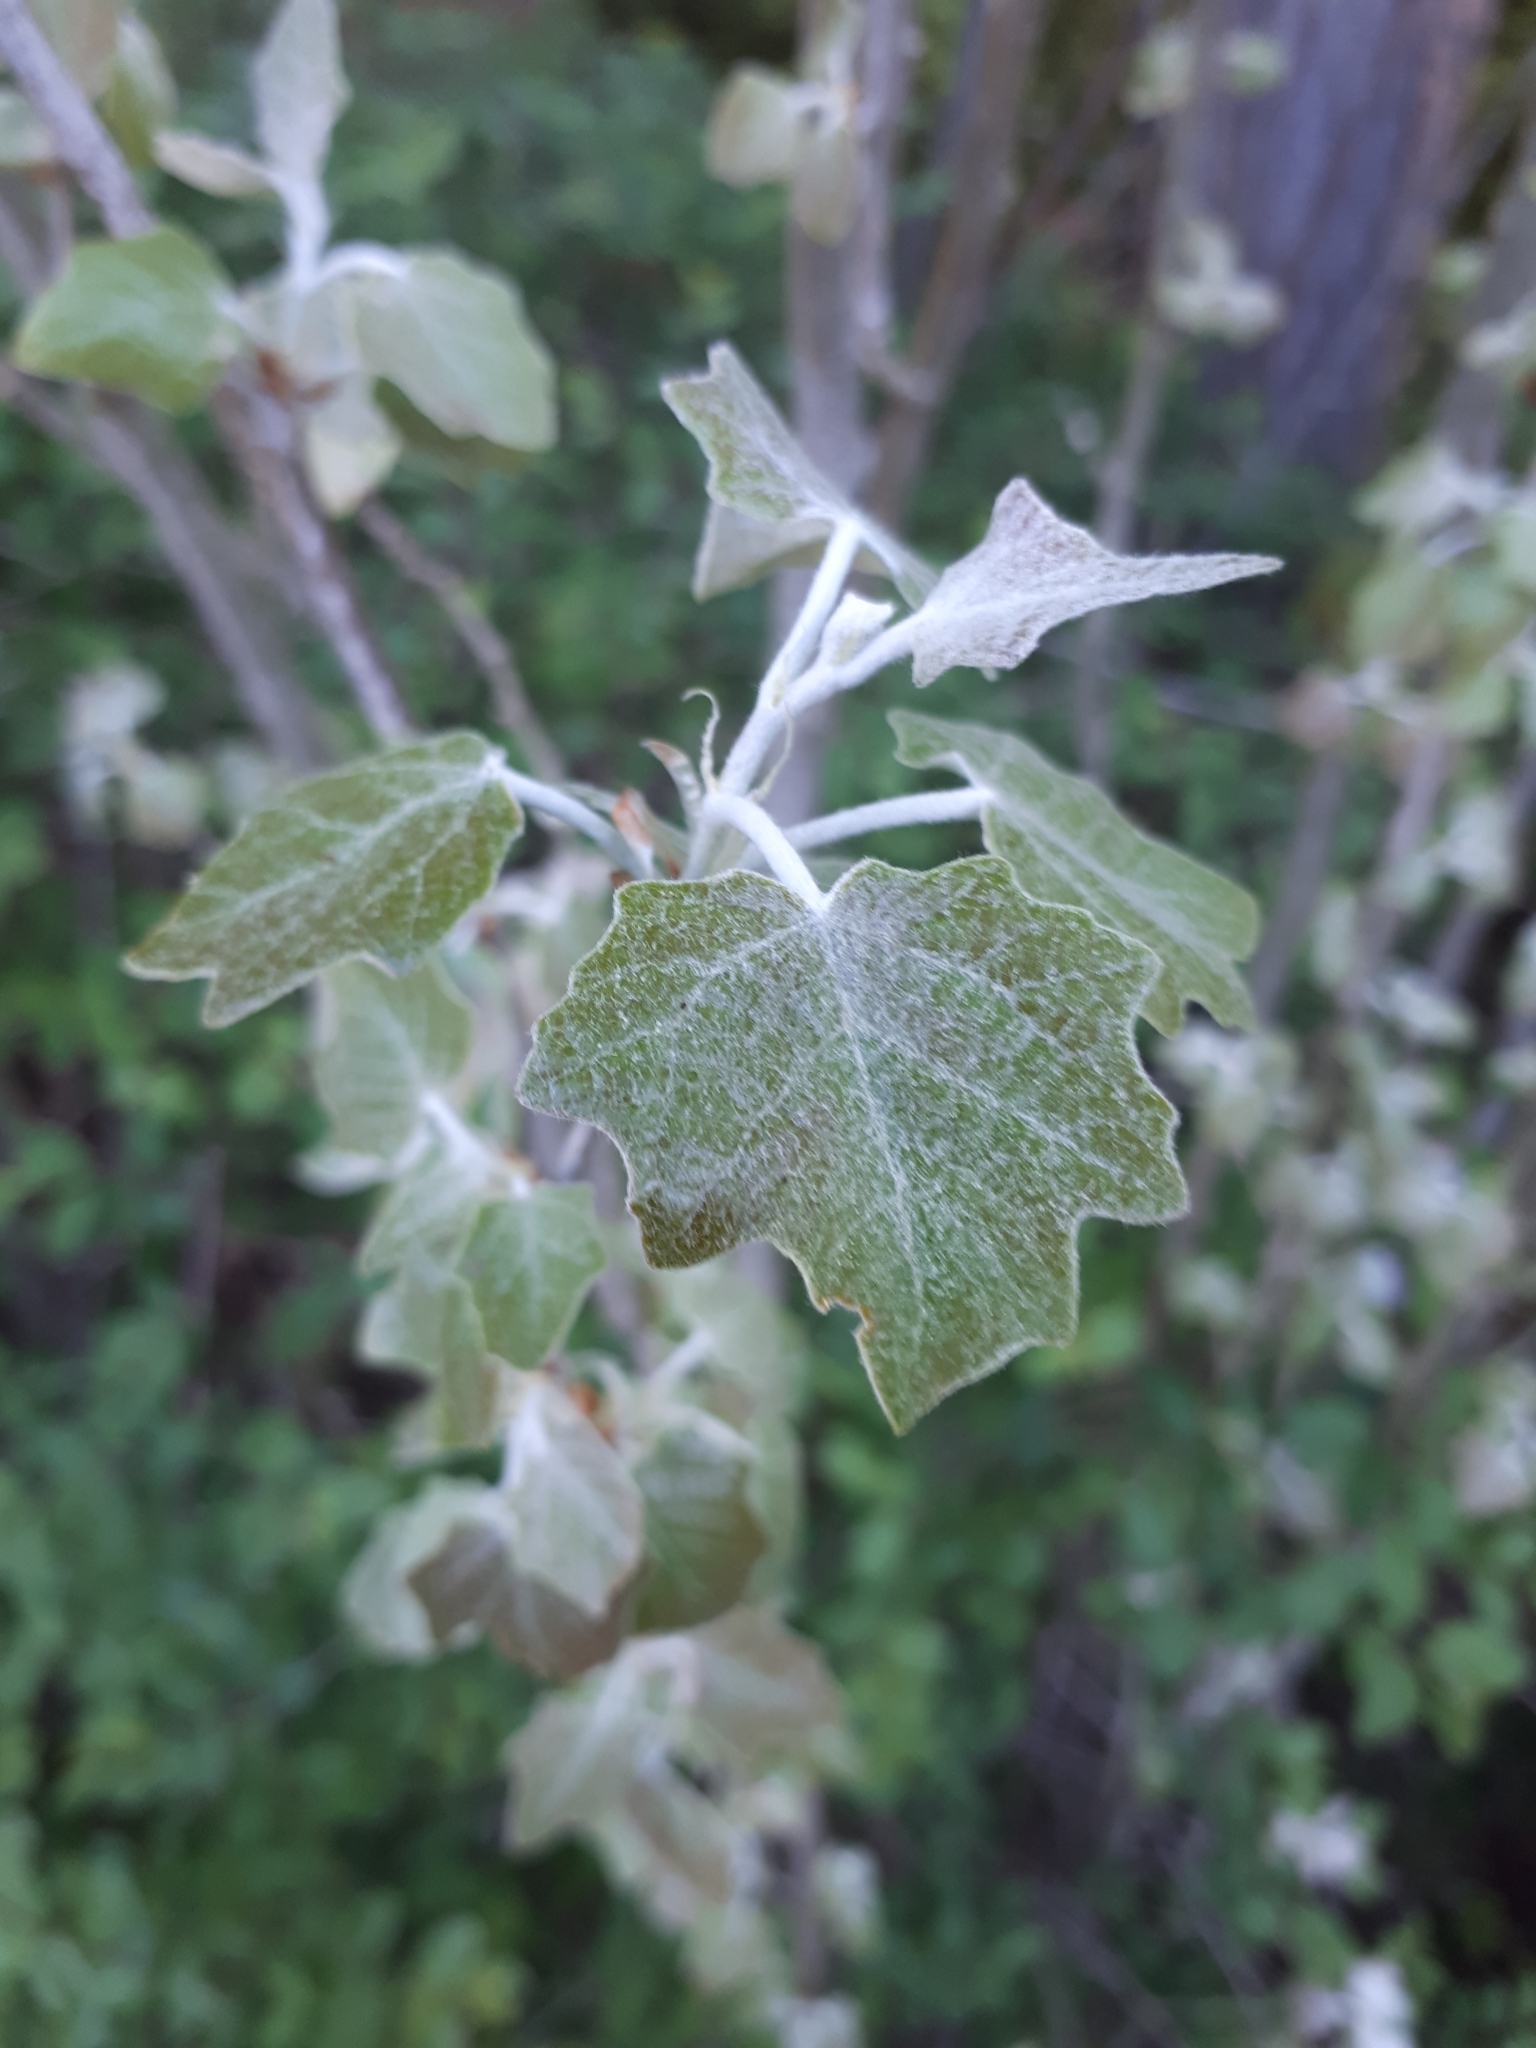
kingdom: Plantae
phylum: Tracheophyta
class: Magnoliopsida
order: Malpighiales
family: Salicaceae
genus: Populus
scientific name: Populus alba
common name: White poplar
